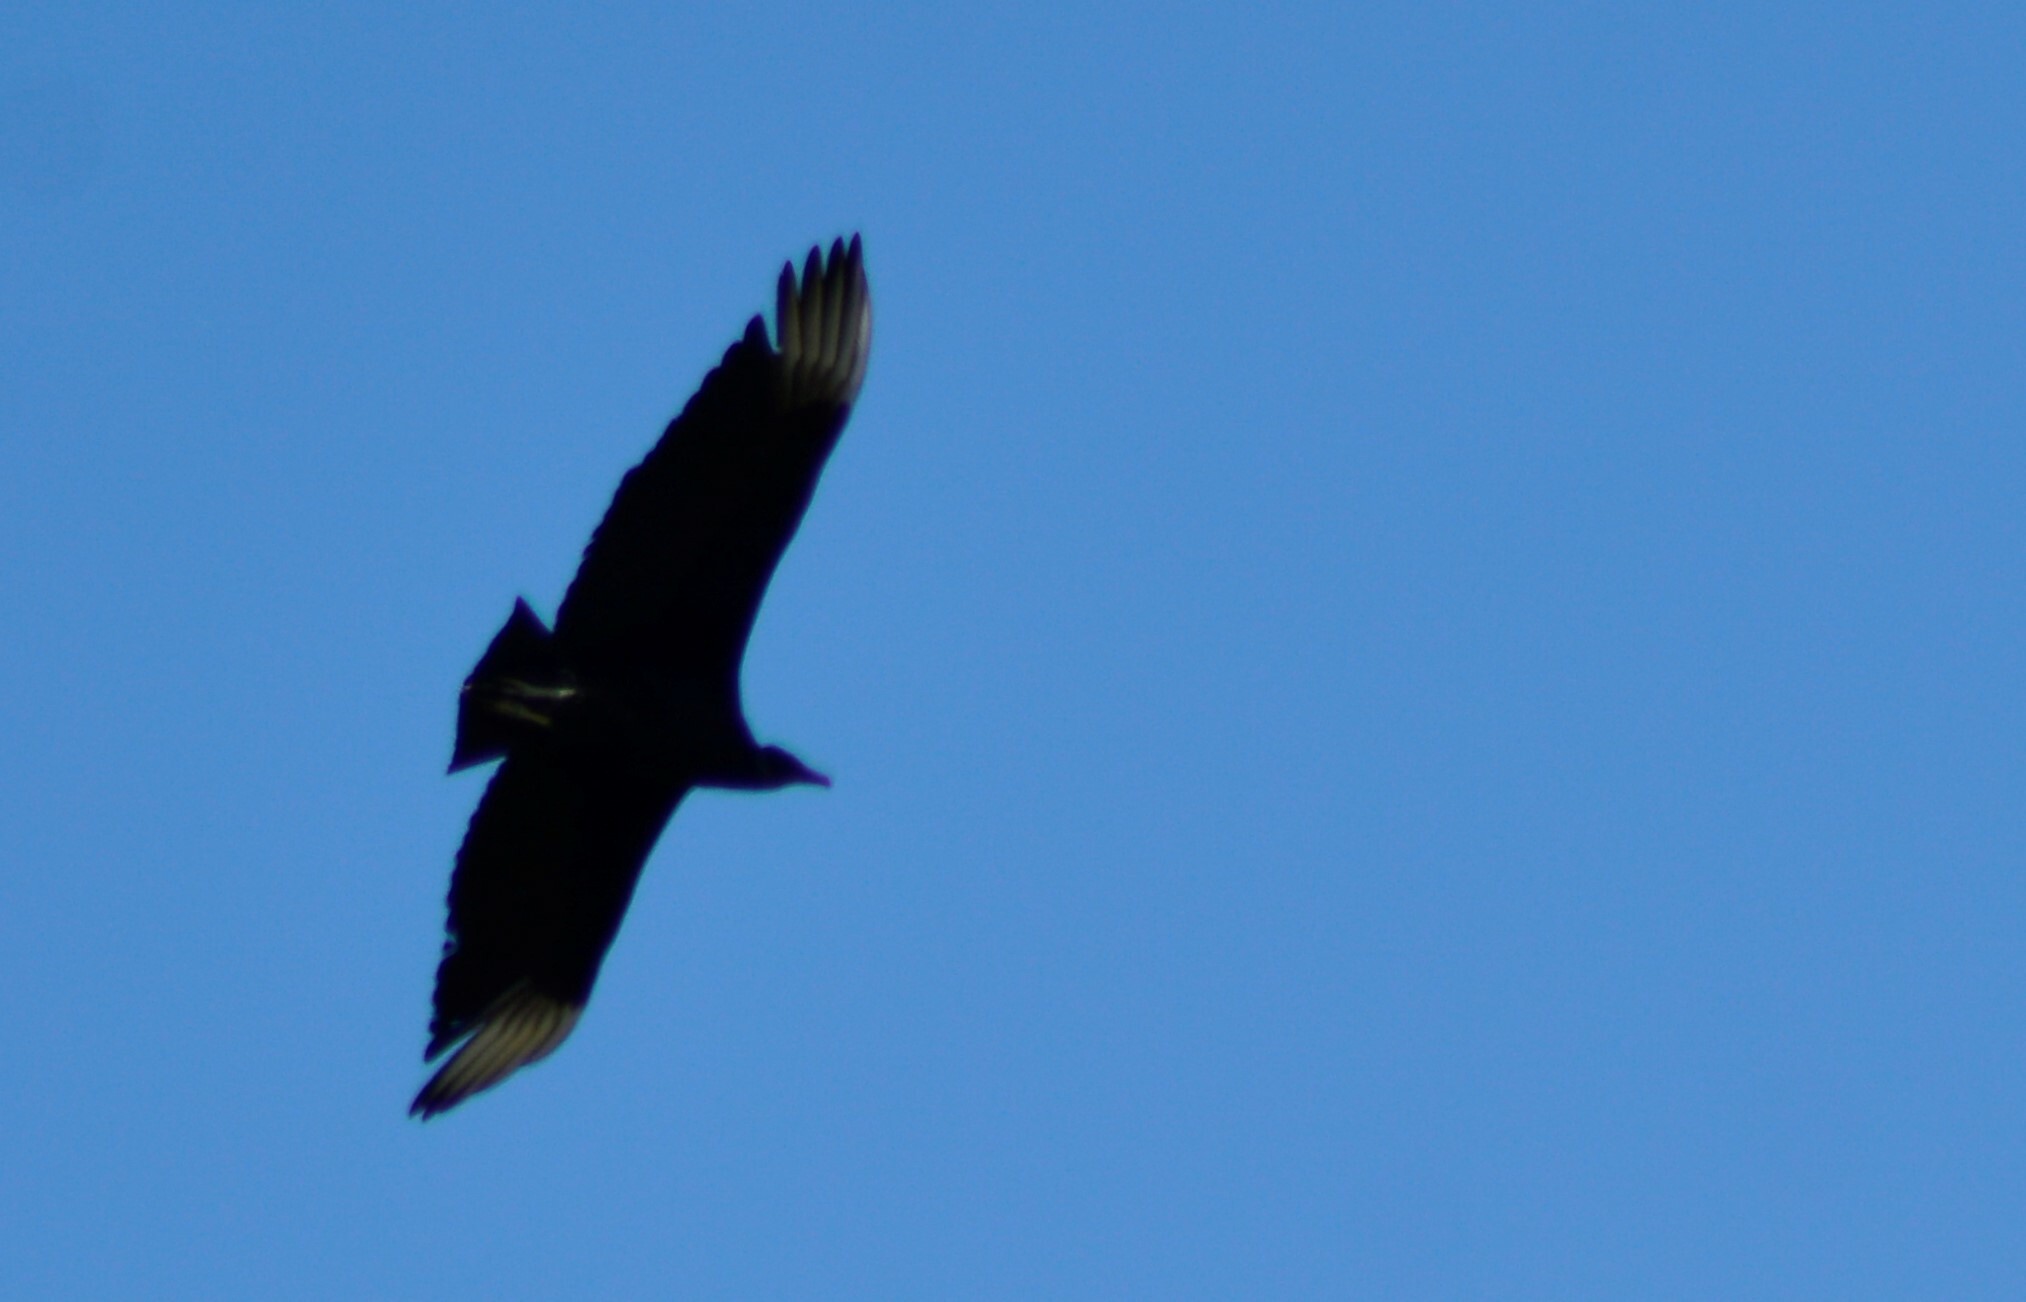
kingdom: Animalia
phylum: Chordata
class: Aves
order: Accipitriformes
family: Cathartidae
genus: Coragyps
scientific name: Coragyps atratus
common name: Black vulture
